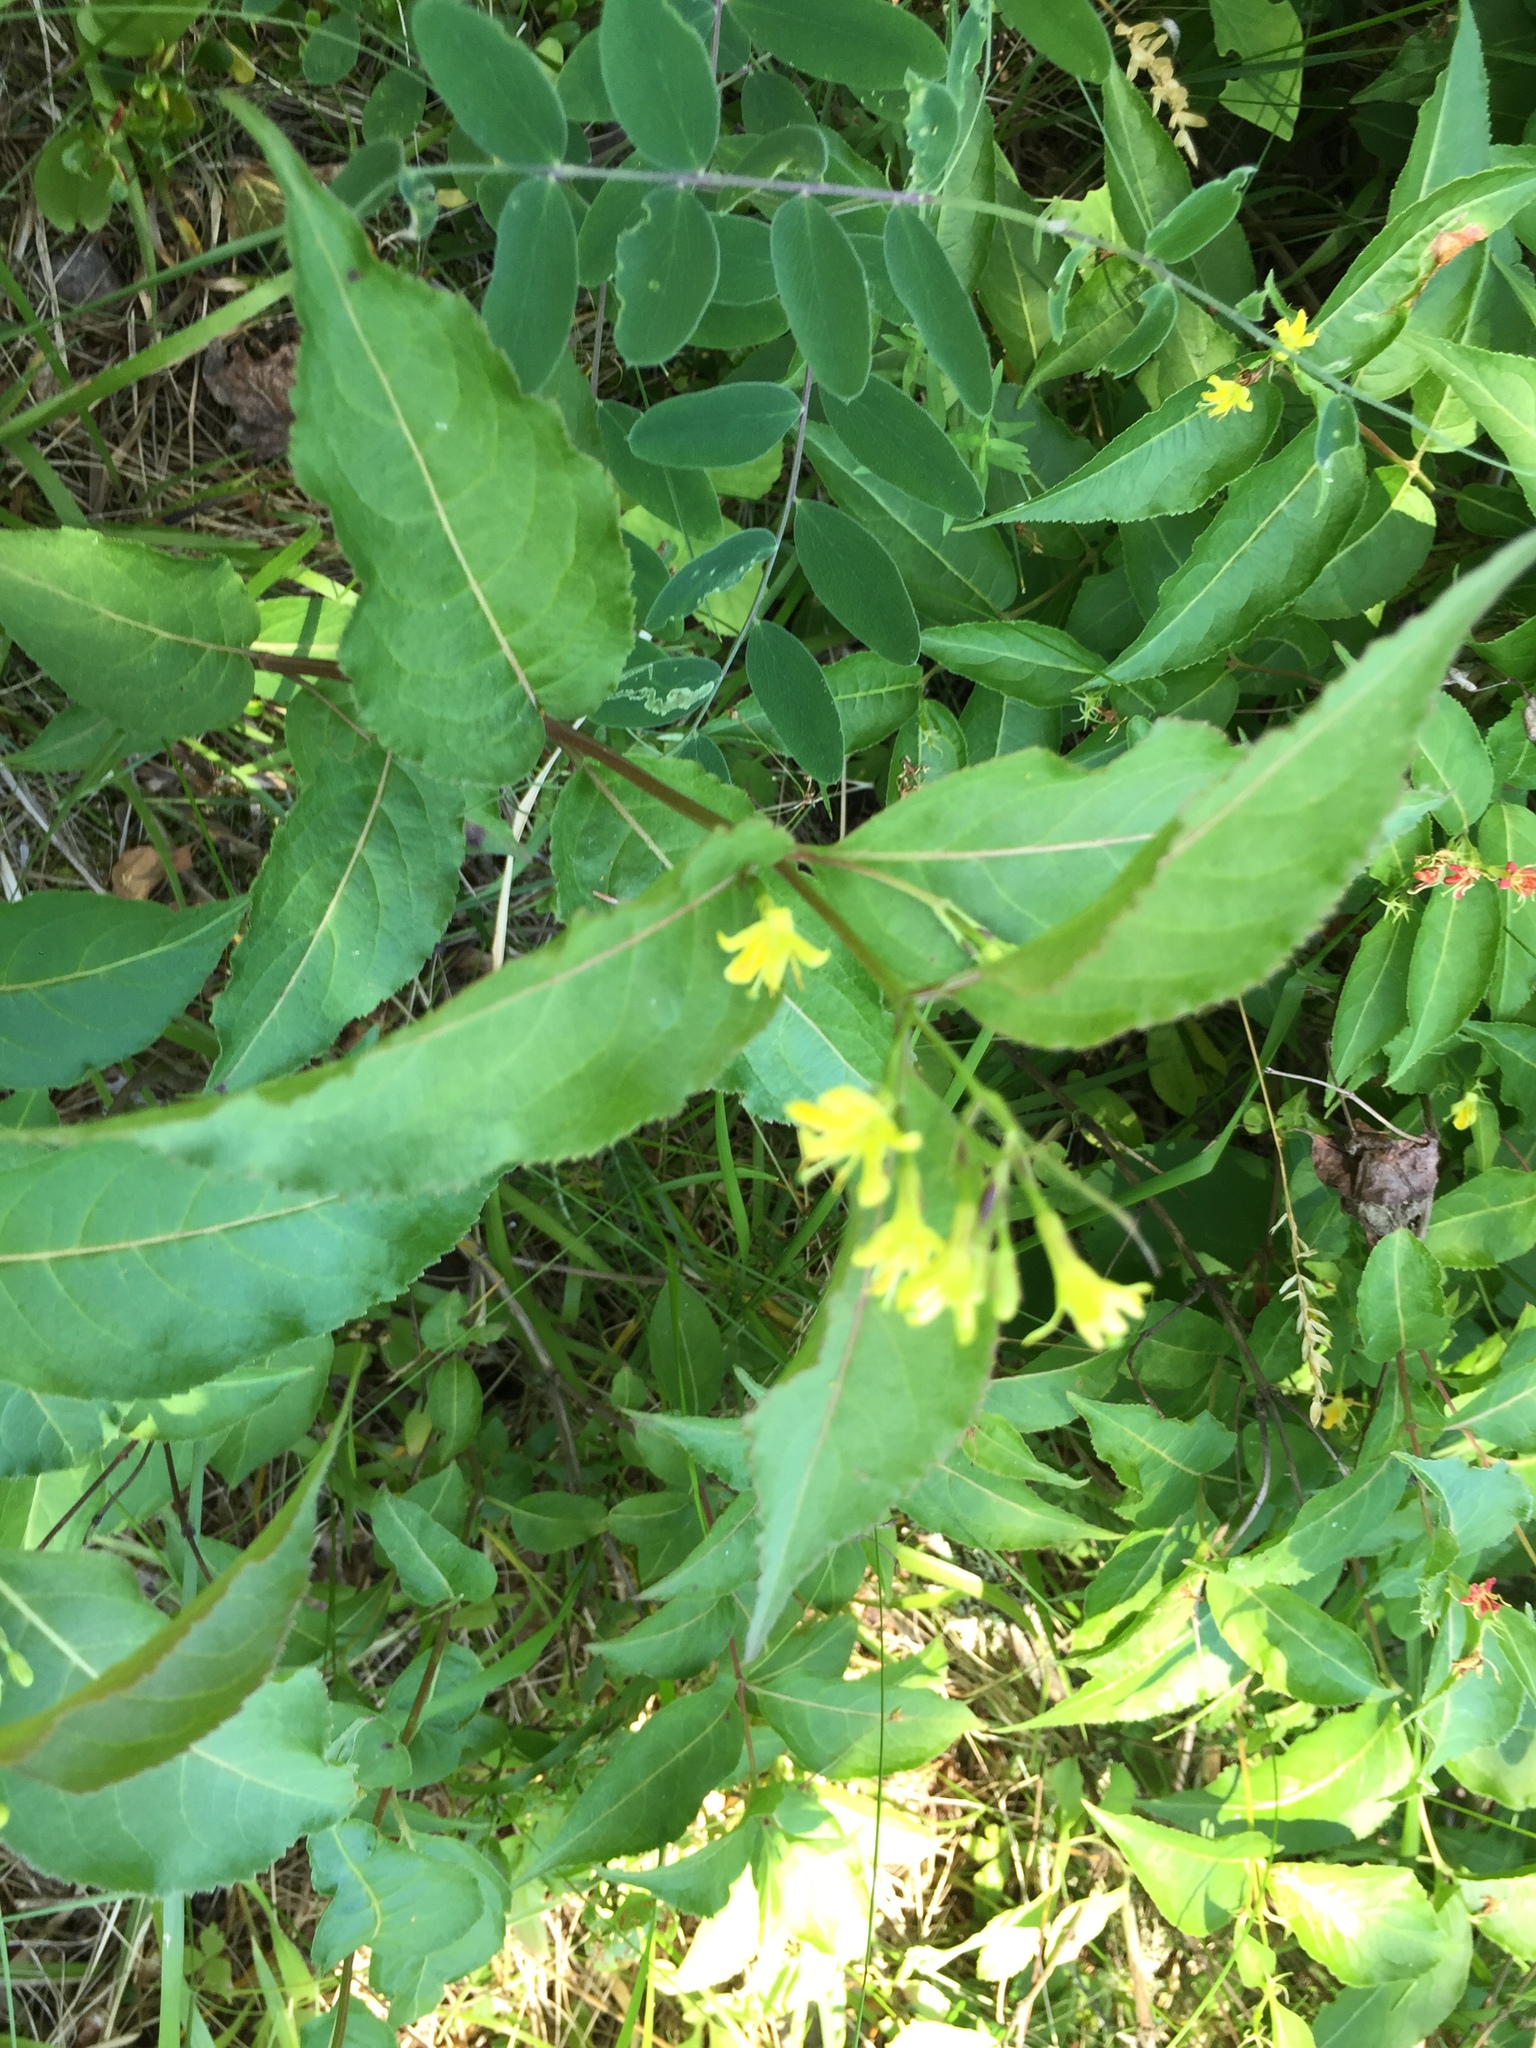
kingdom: Plantae
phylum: Tracheophyta
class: Magnoliopsida
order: Dipsacales
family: Caprifoliaceae
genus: Diervilla
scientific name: Diervilla lonicera
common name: Bush-honeysuckle
